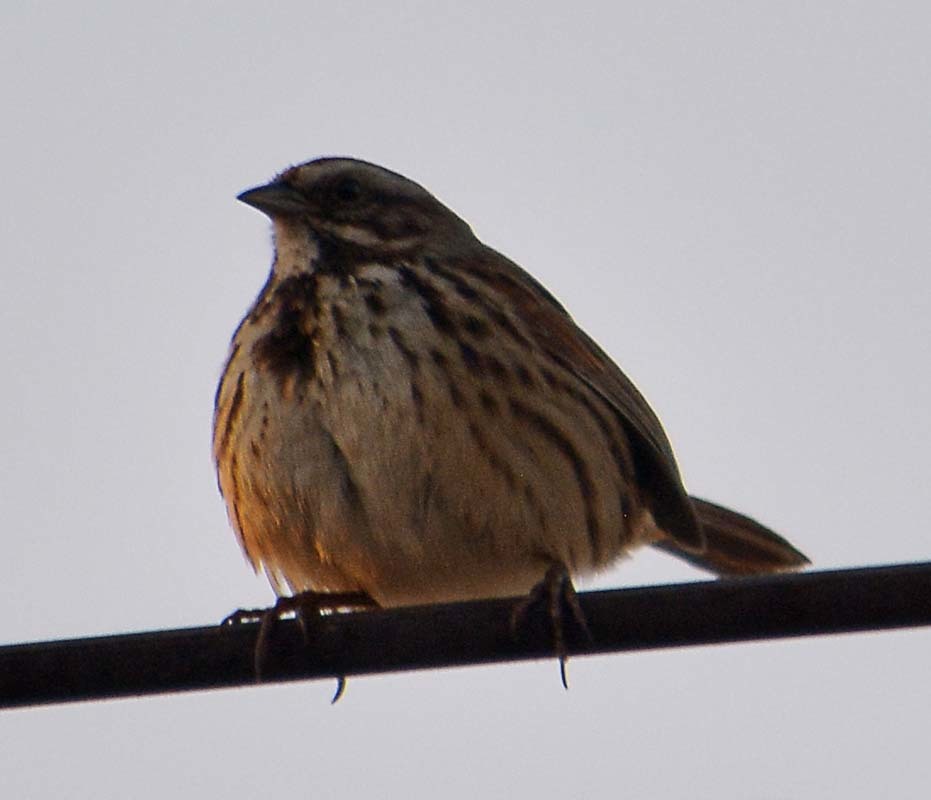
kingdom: Animalia
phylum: Chordata
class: Aves
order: Passeriformes
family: Passerellidae
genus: Melospiza
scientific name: Melospiza melodia
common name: Song sparrow
